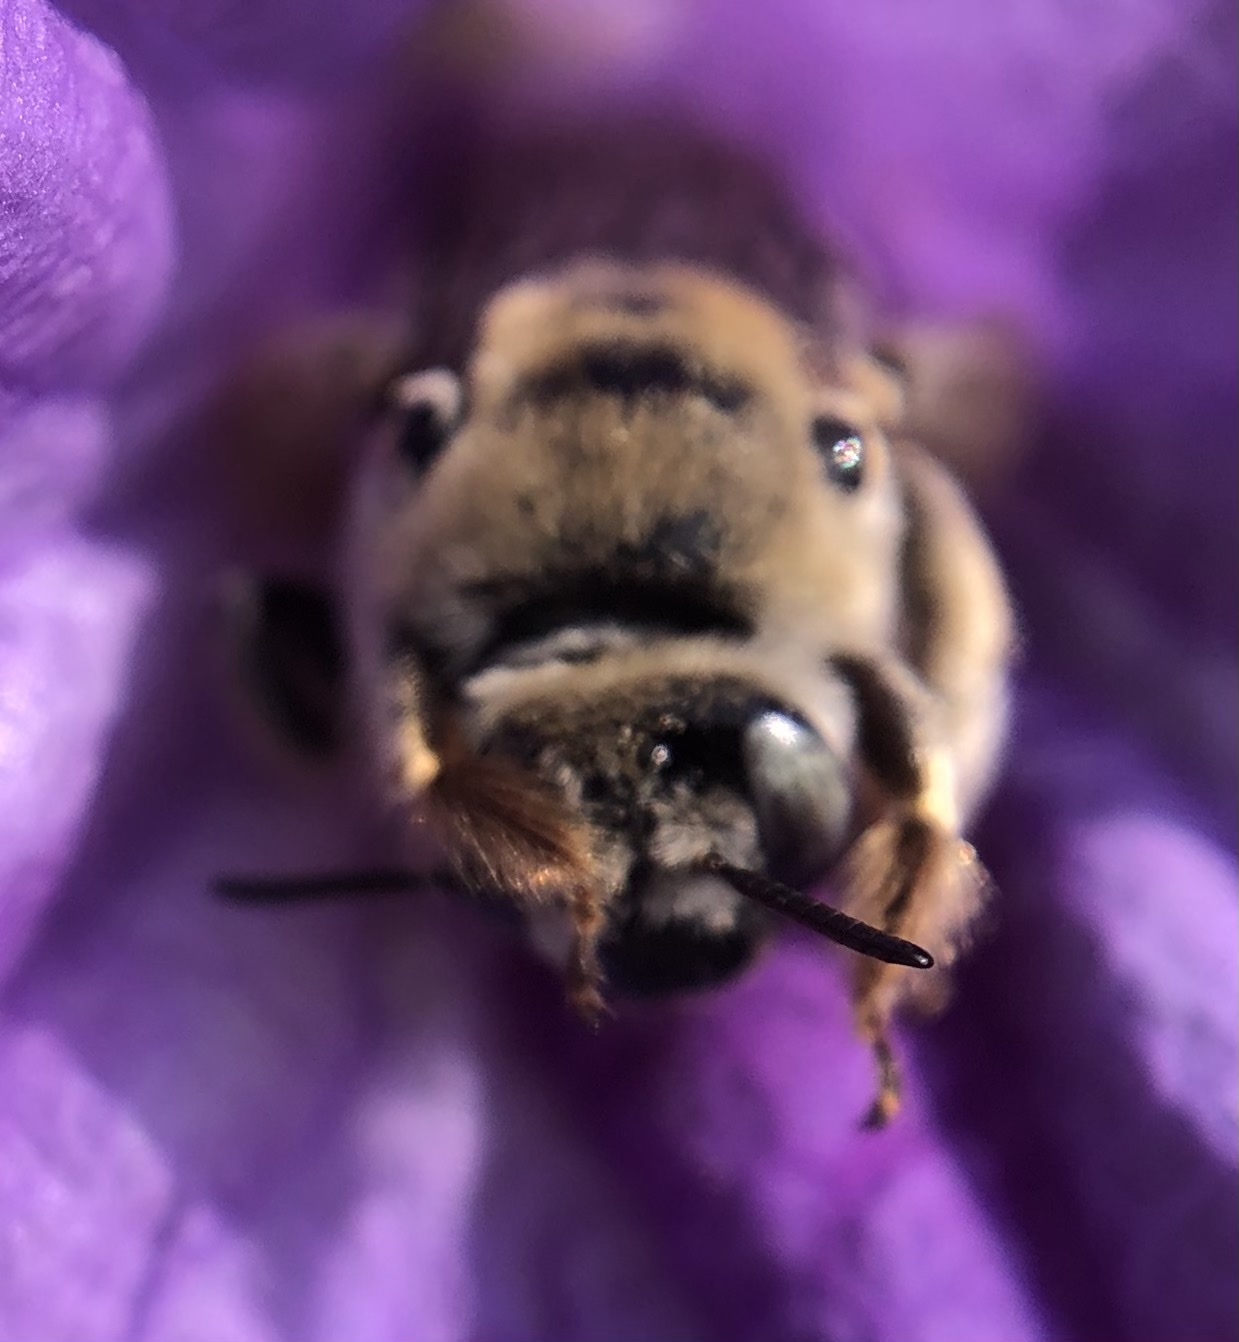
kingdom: Animalia
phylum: Arthropoda
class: Insecta
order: Hymenoptera
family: Apidae
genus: Diadasia
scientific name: Diadasia
